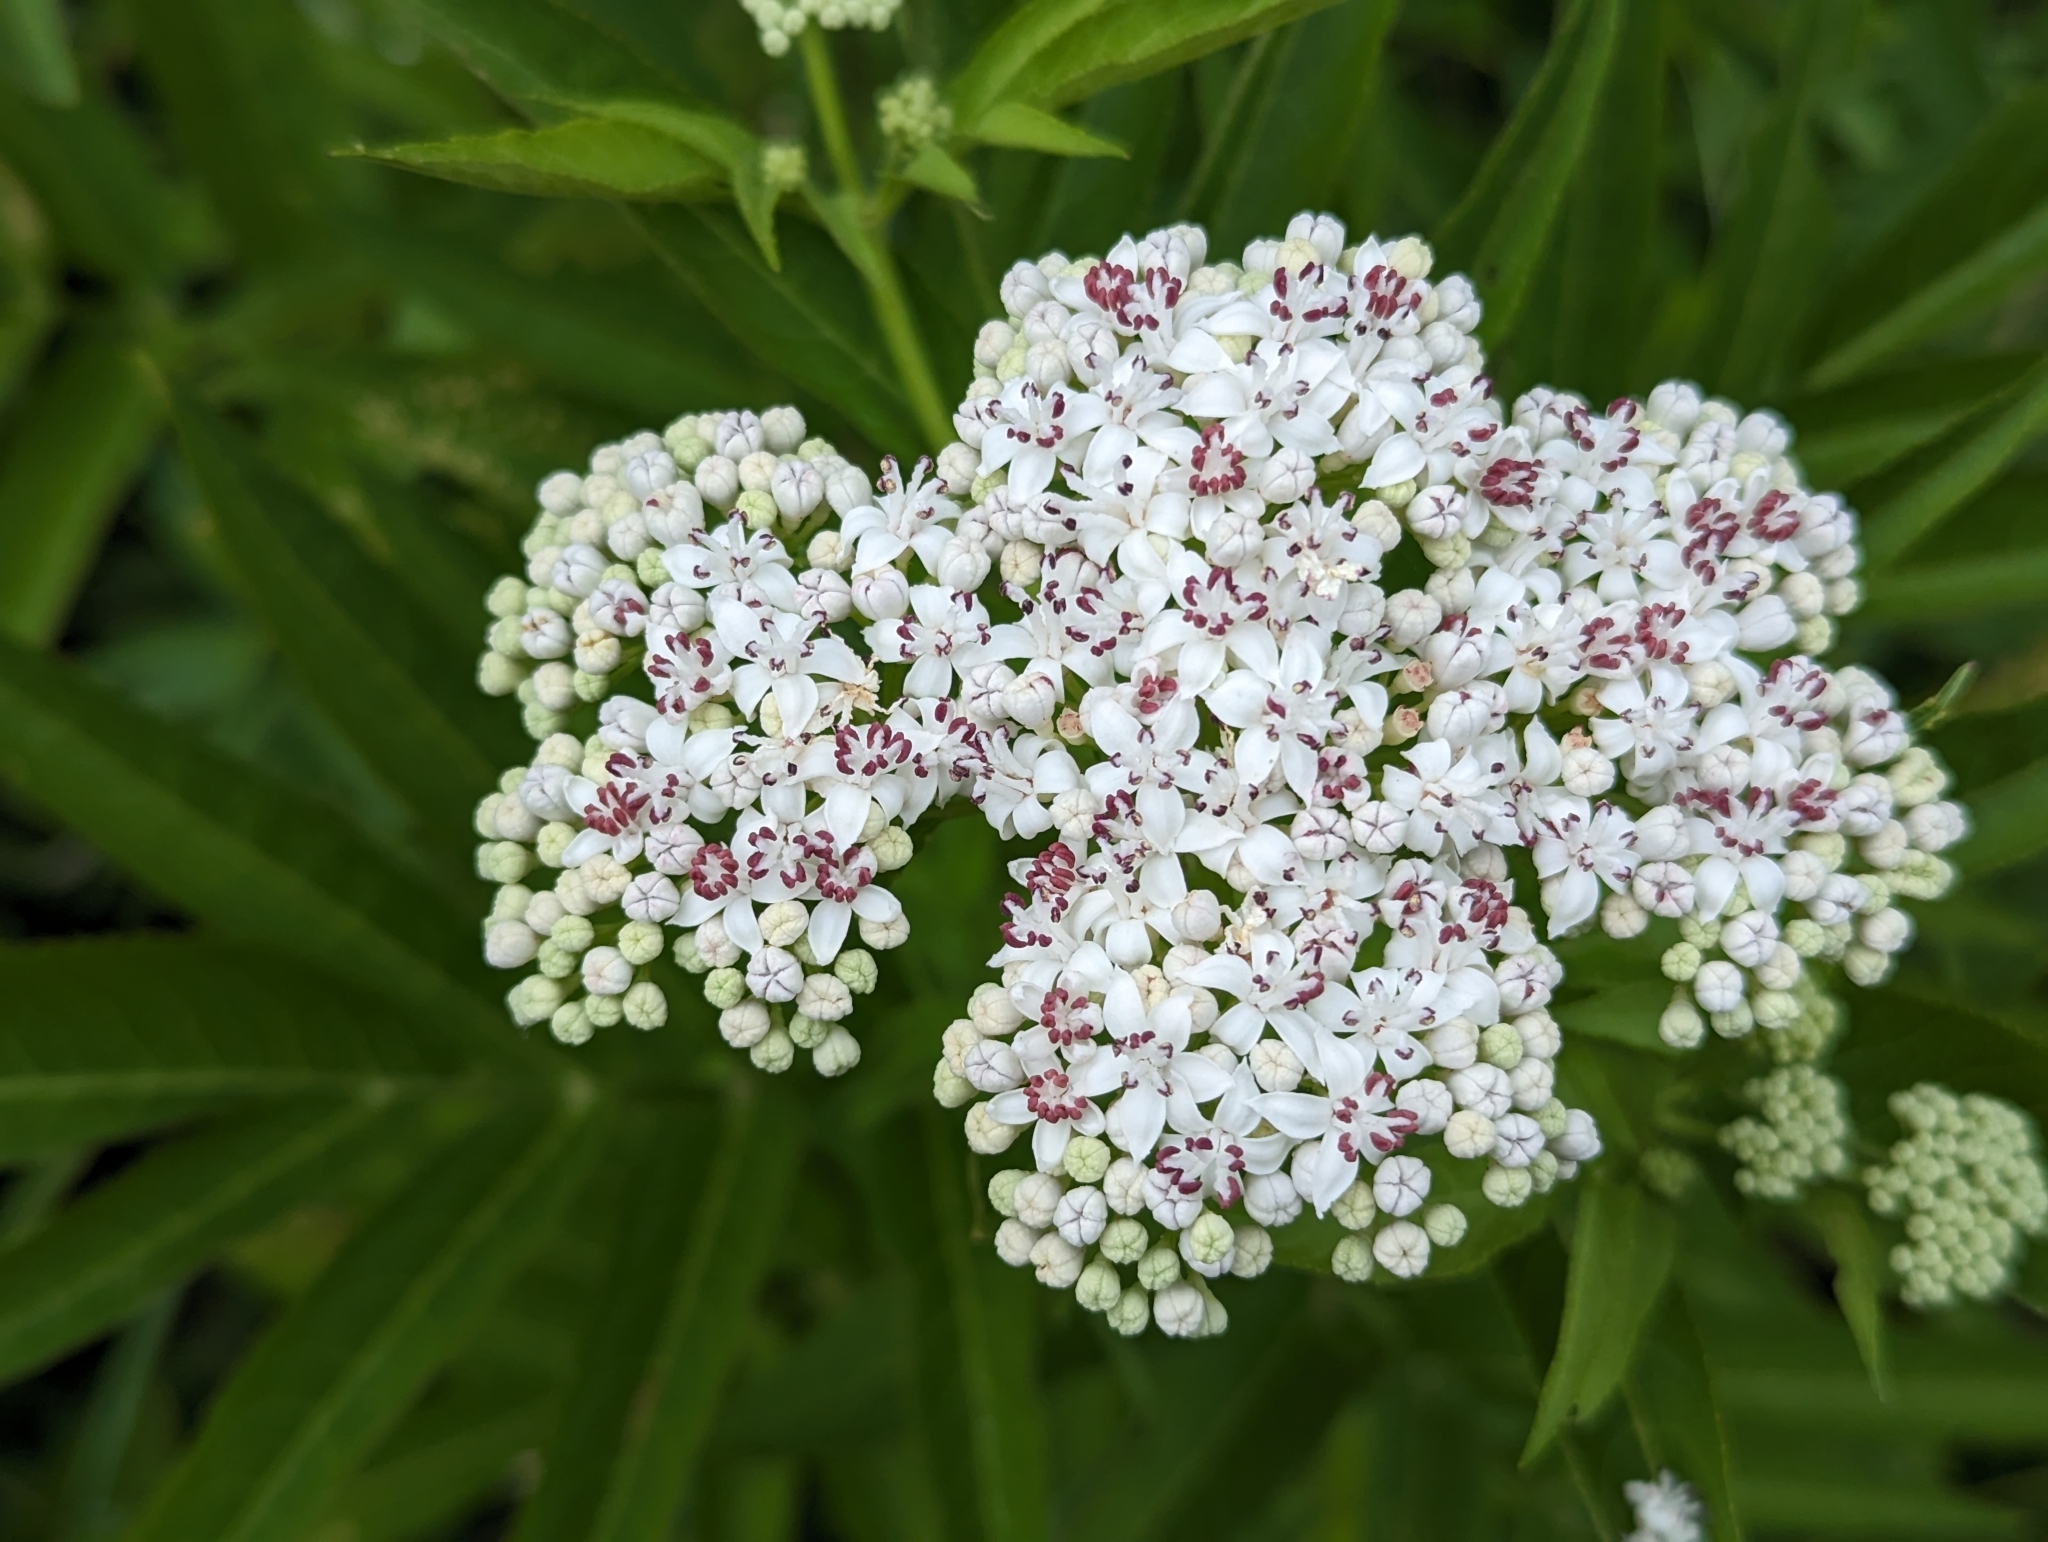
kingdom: Plantae
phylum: Tracheophyta
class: Magnoliopsida
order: Dipsacales
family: Viburnaceae
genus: Sambucus
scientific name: Sambucus ebulus
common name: Dwarf elder
